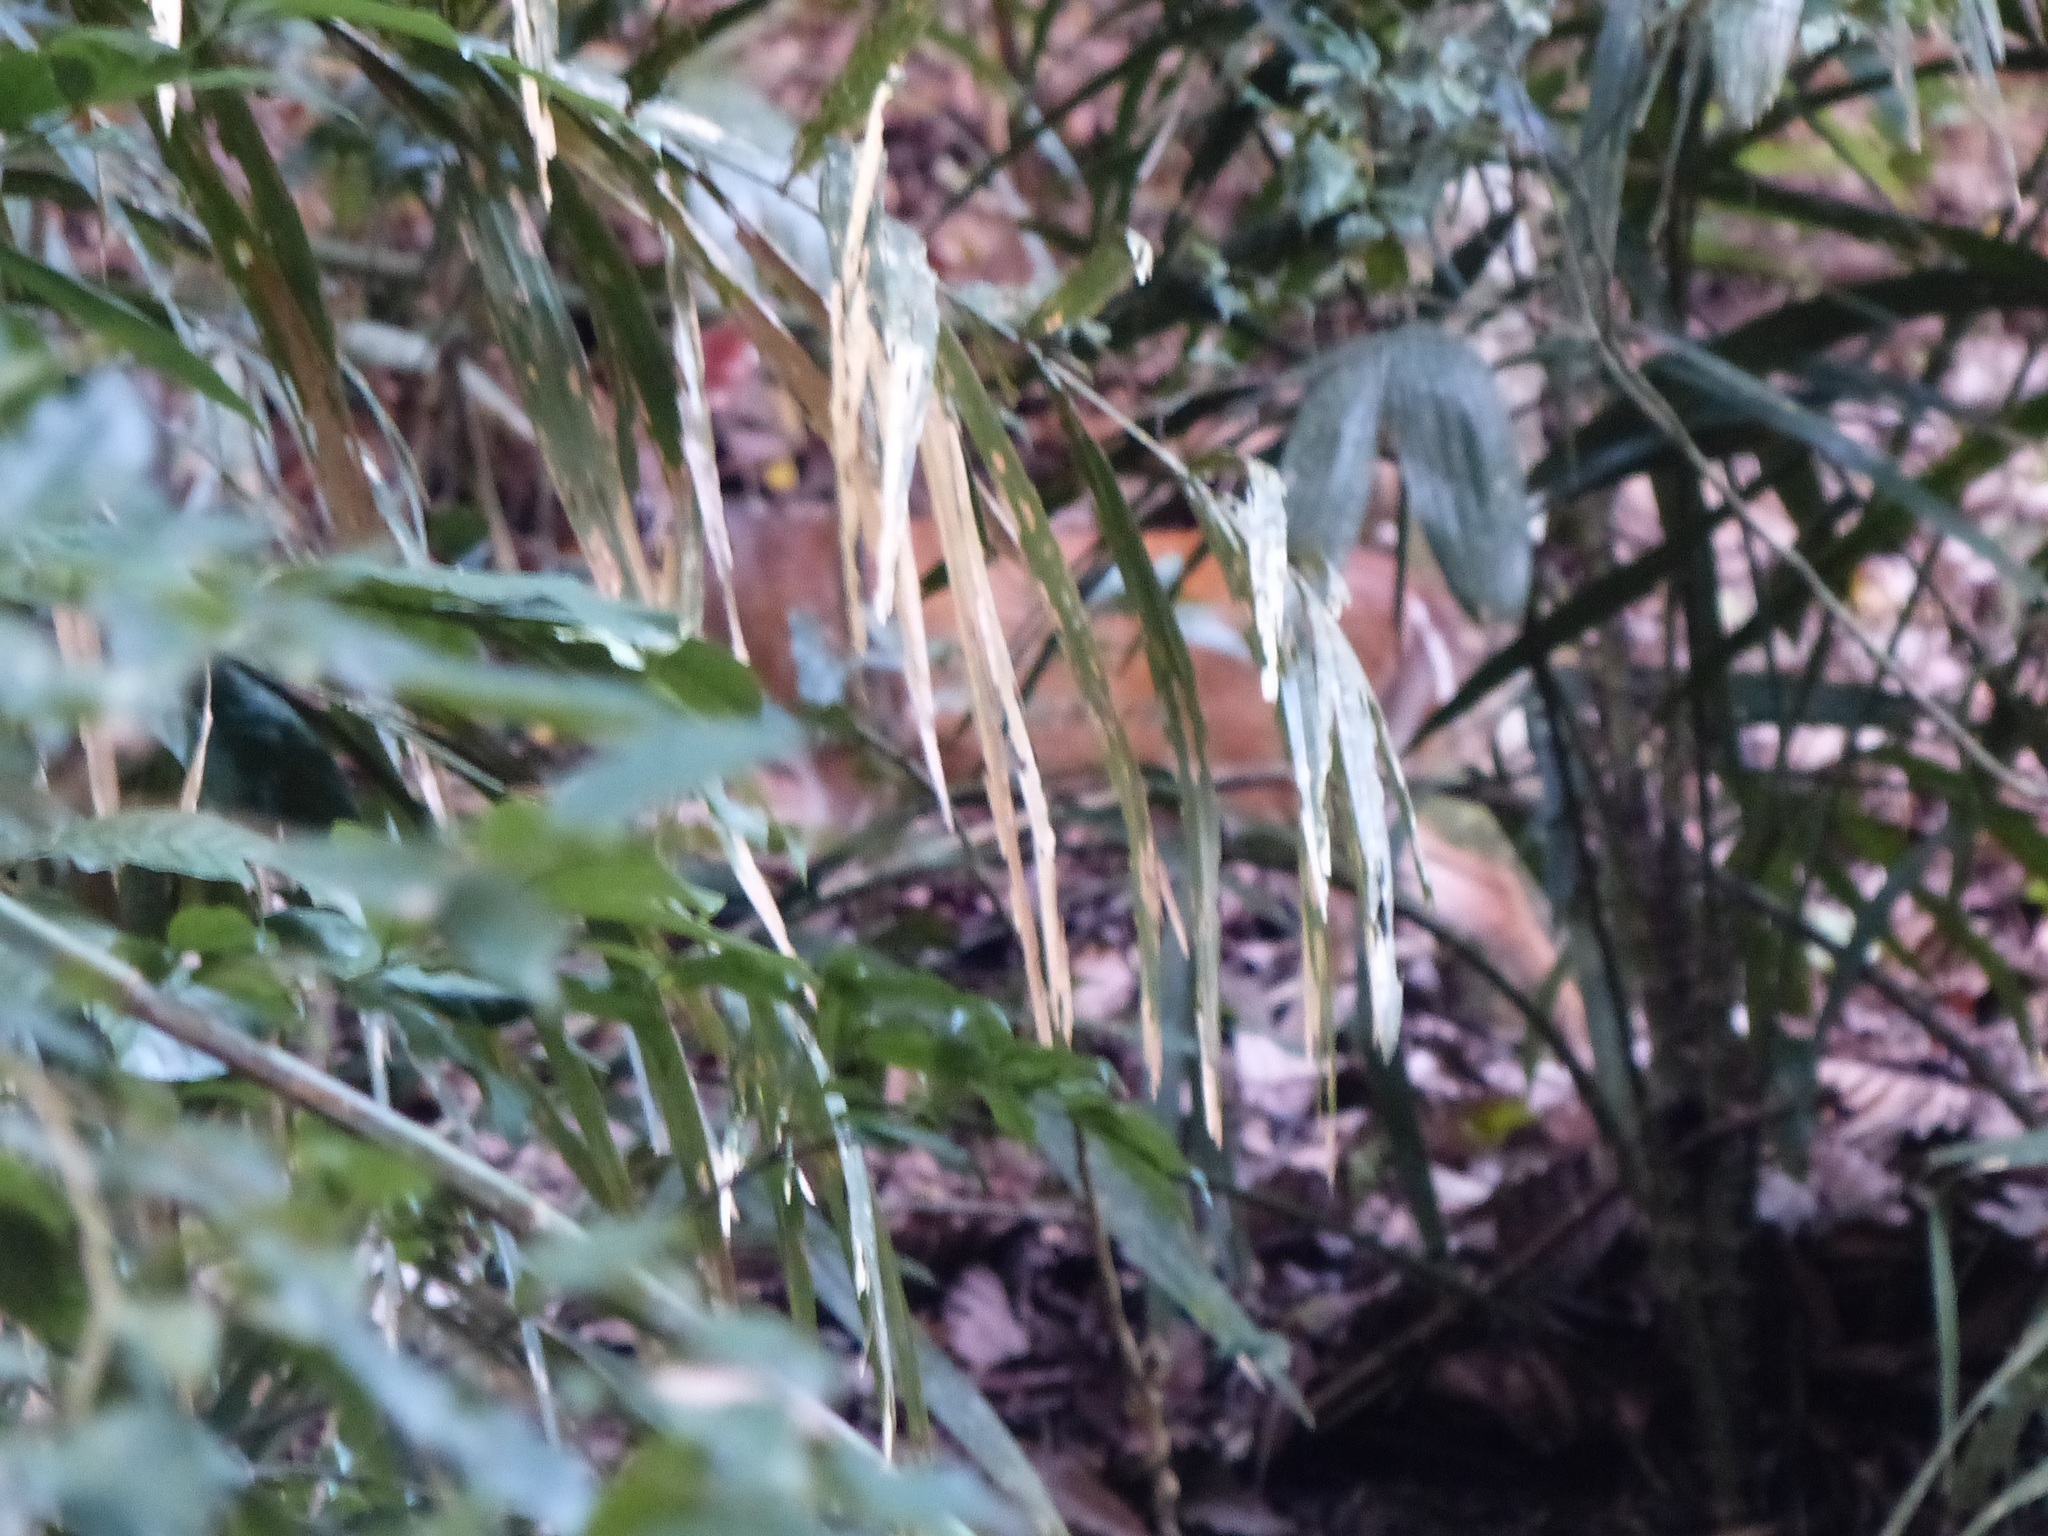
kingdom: Animalia
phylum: Chordata
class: Mammalia
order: Artiodactyla
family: Cervidae
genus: Muntiacus
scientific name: Muntiacus muntjak
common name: Indian muntjac
